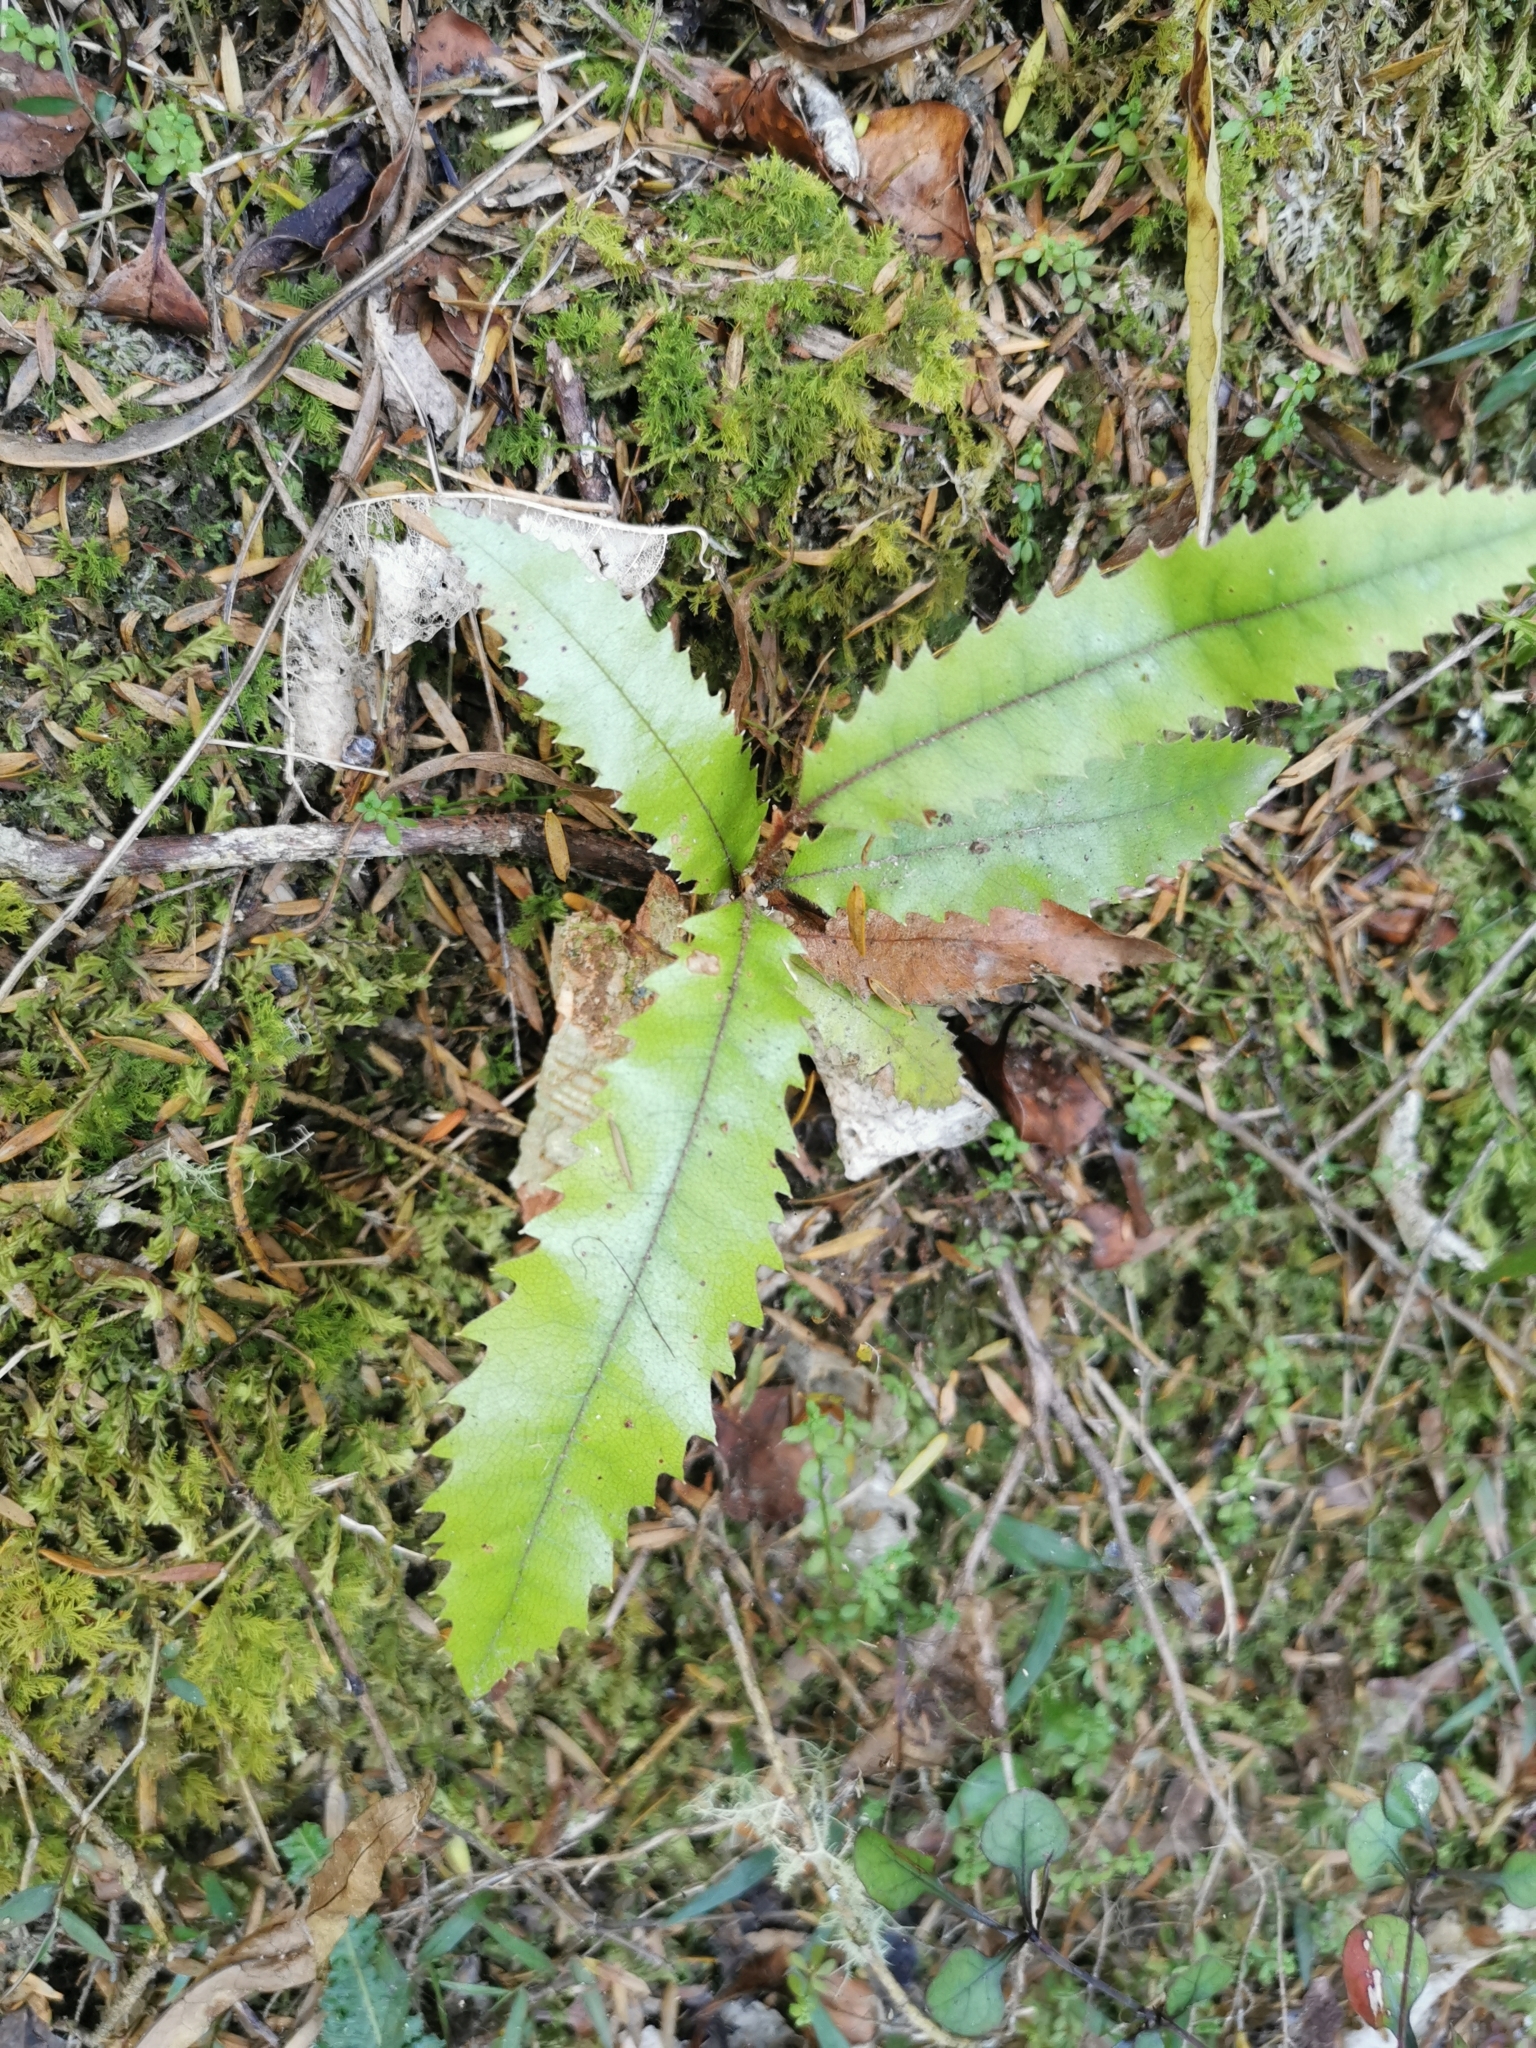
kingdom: Plantae
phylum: Tracheophyta
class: Magnoliopsida
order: Proteales
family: Proteaceae
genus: Knightia
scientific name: Knightia excelsa
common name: New zealand-honeysuckle
